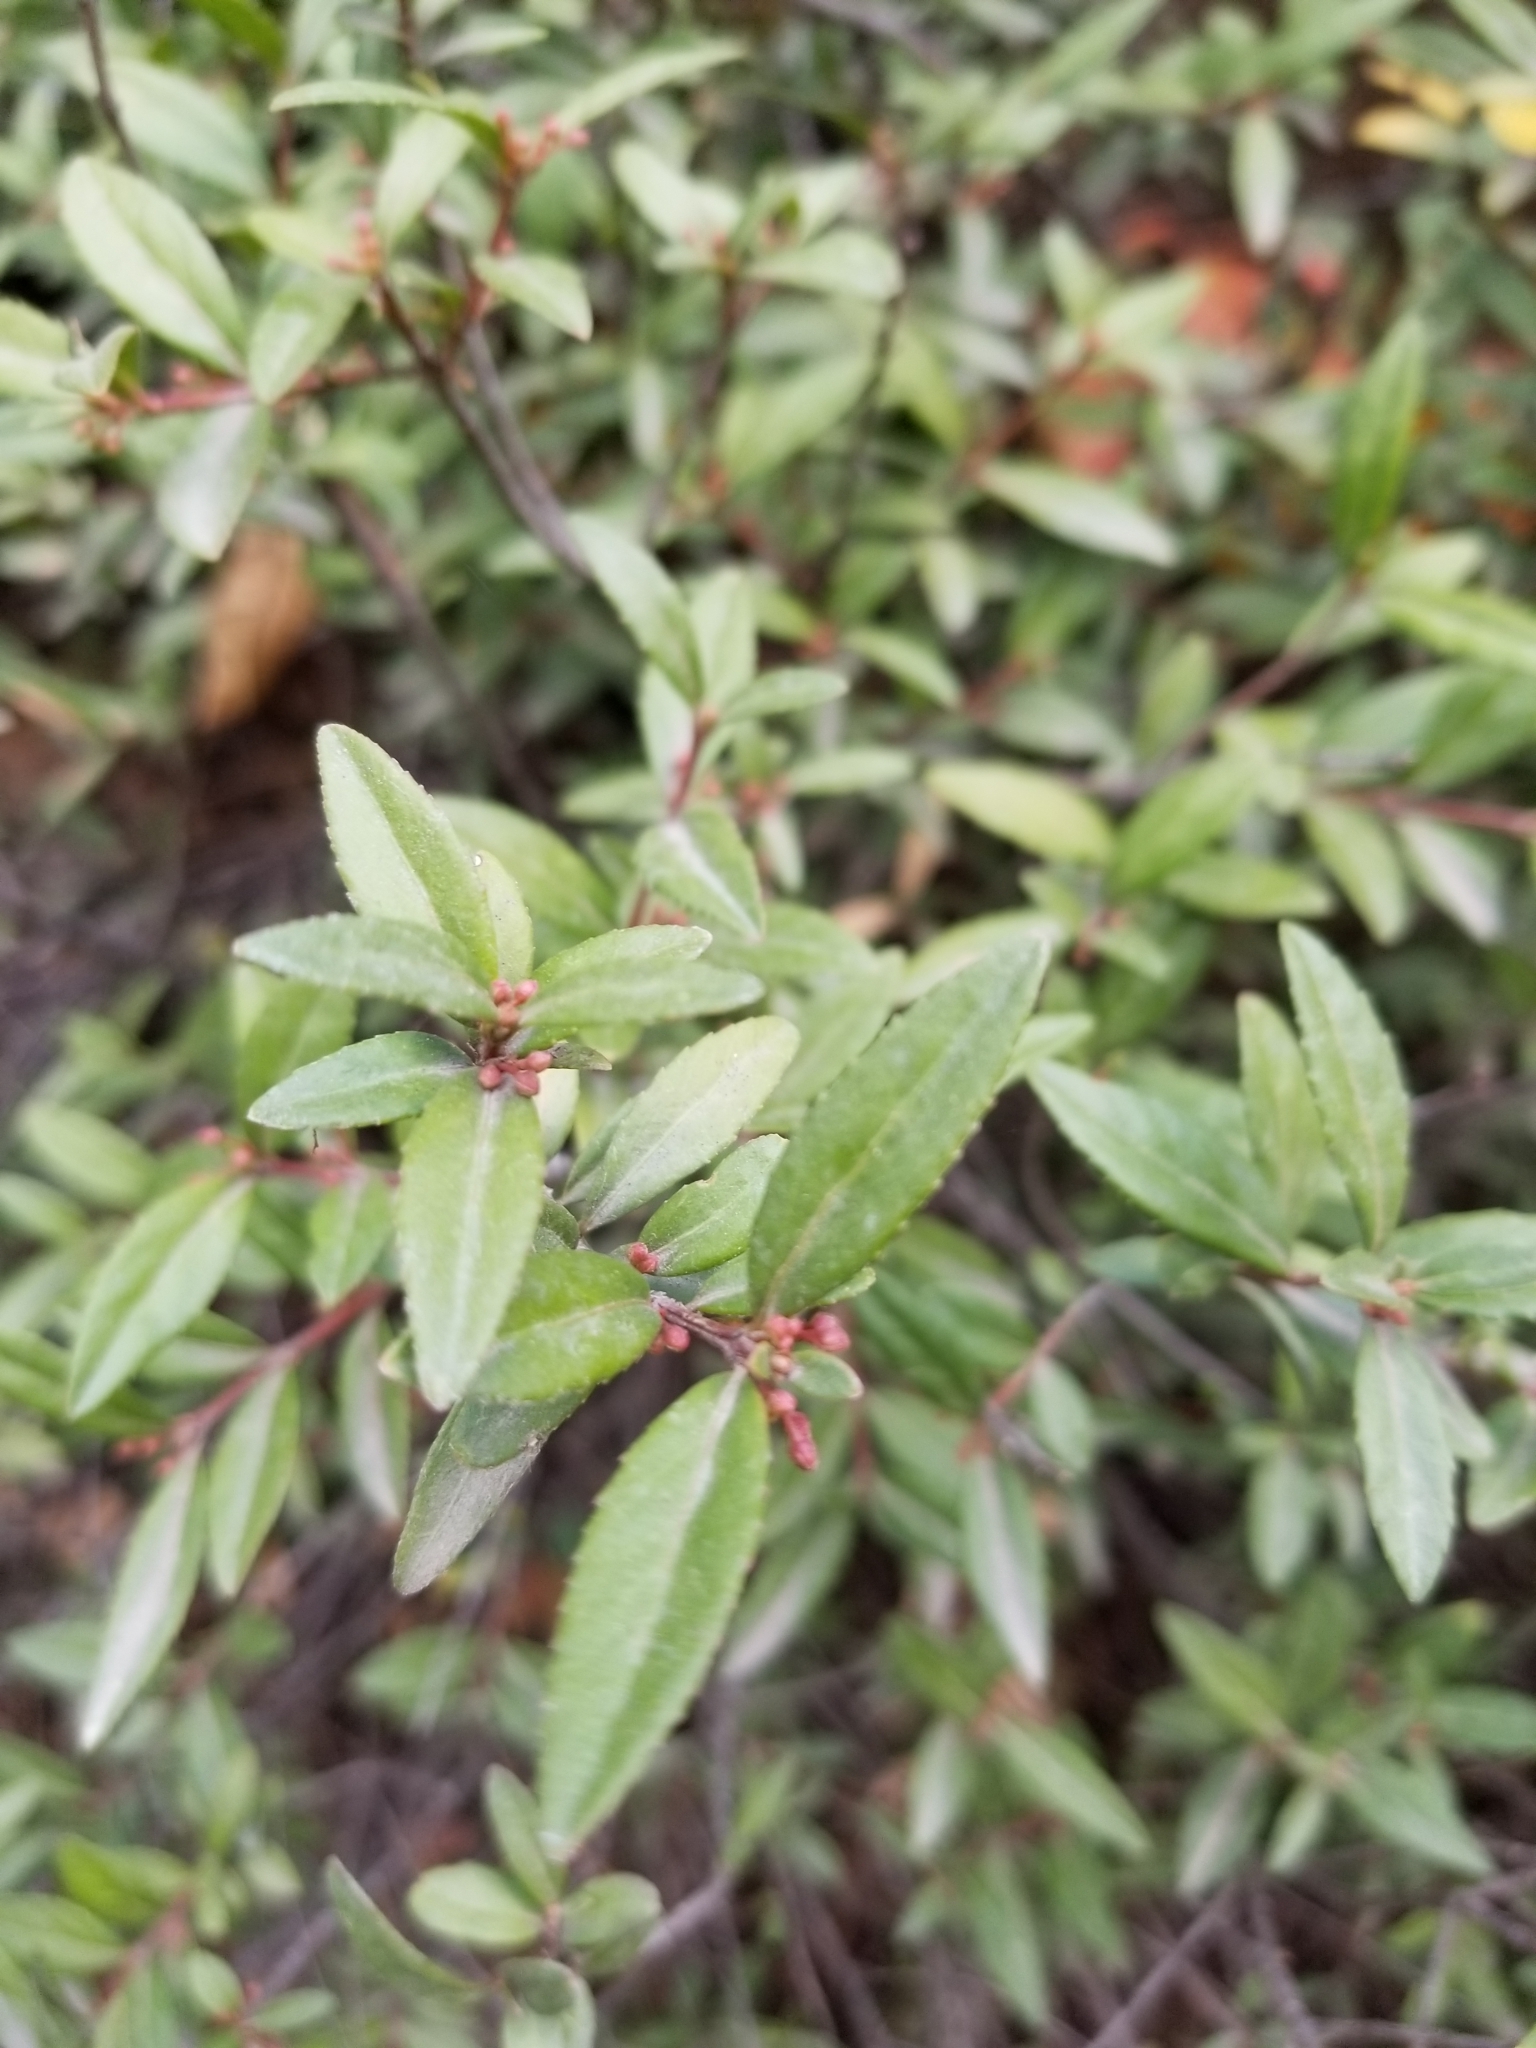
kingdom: Plantae
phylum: Tracheophyta
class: Magnoliopsida
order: Celastrales
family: Celastraceae
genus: Paxistima
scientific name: Paxistima myrsinites
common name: Mountain-lover
